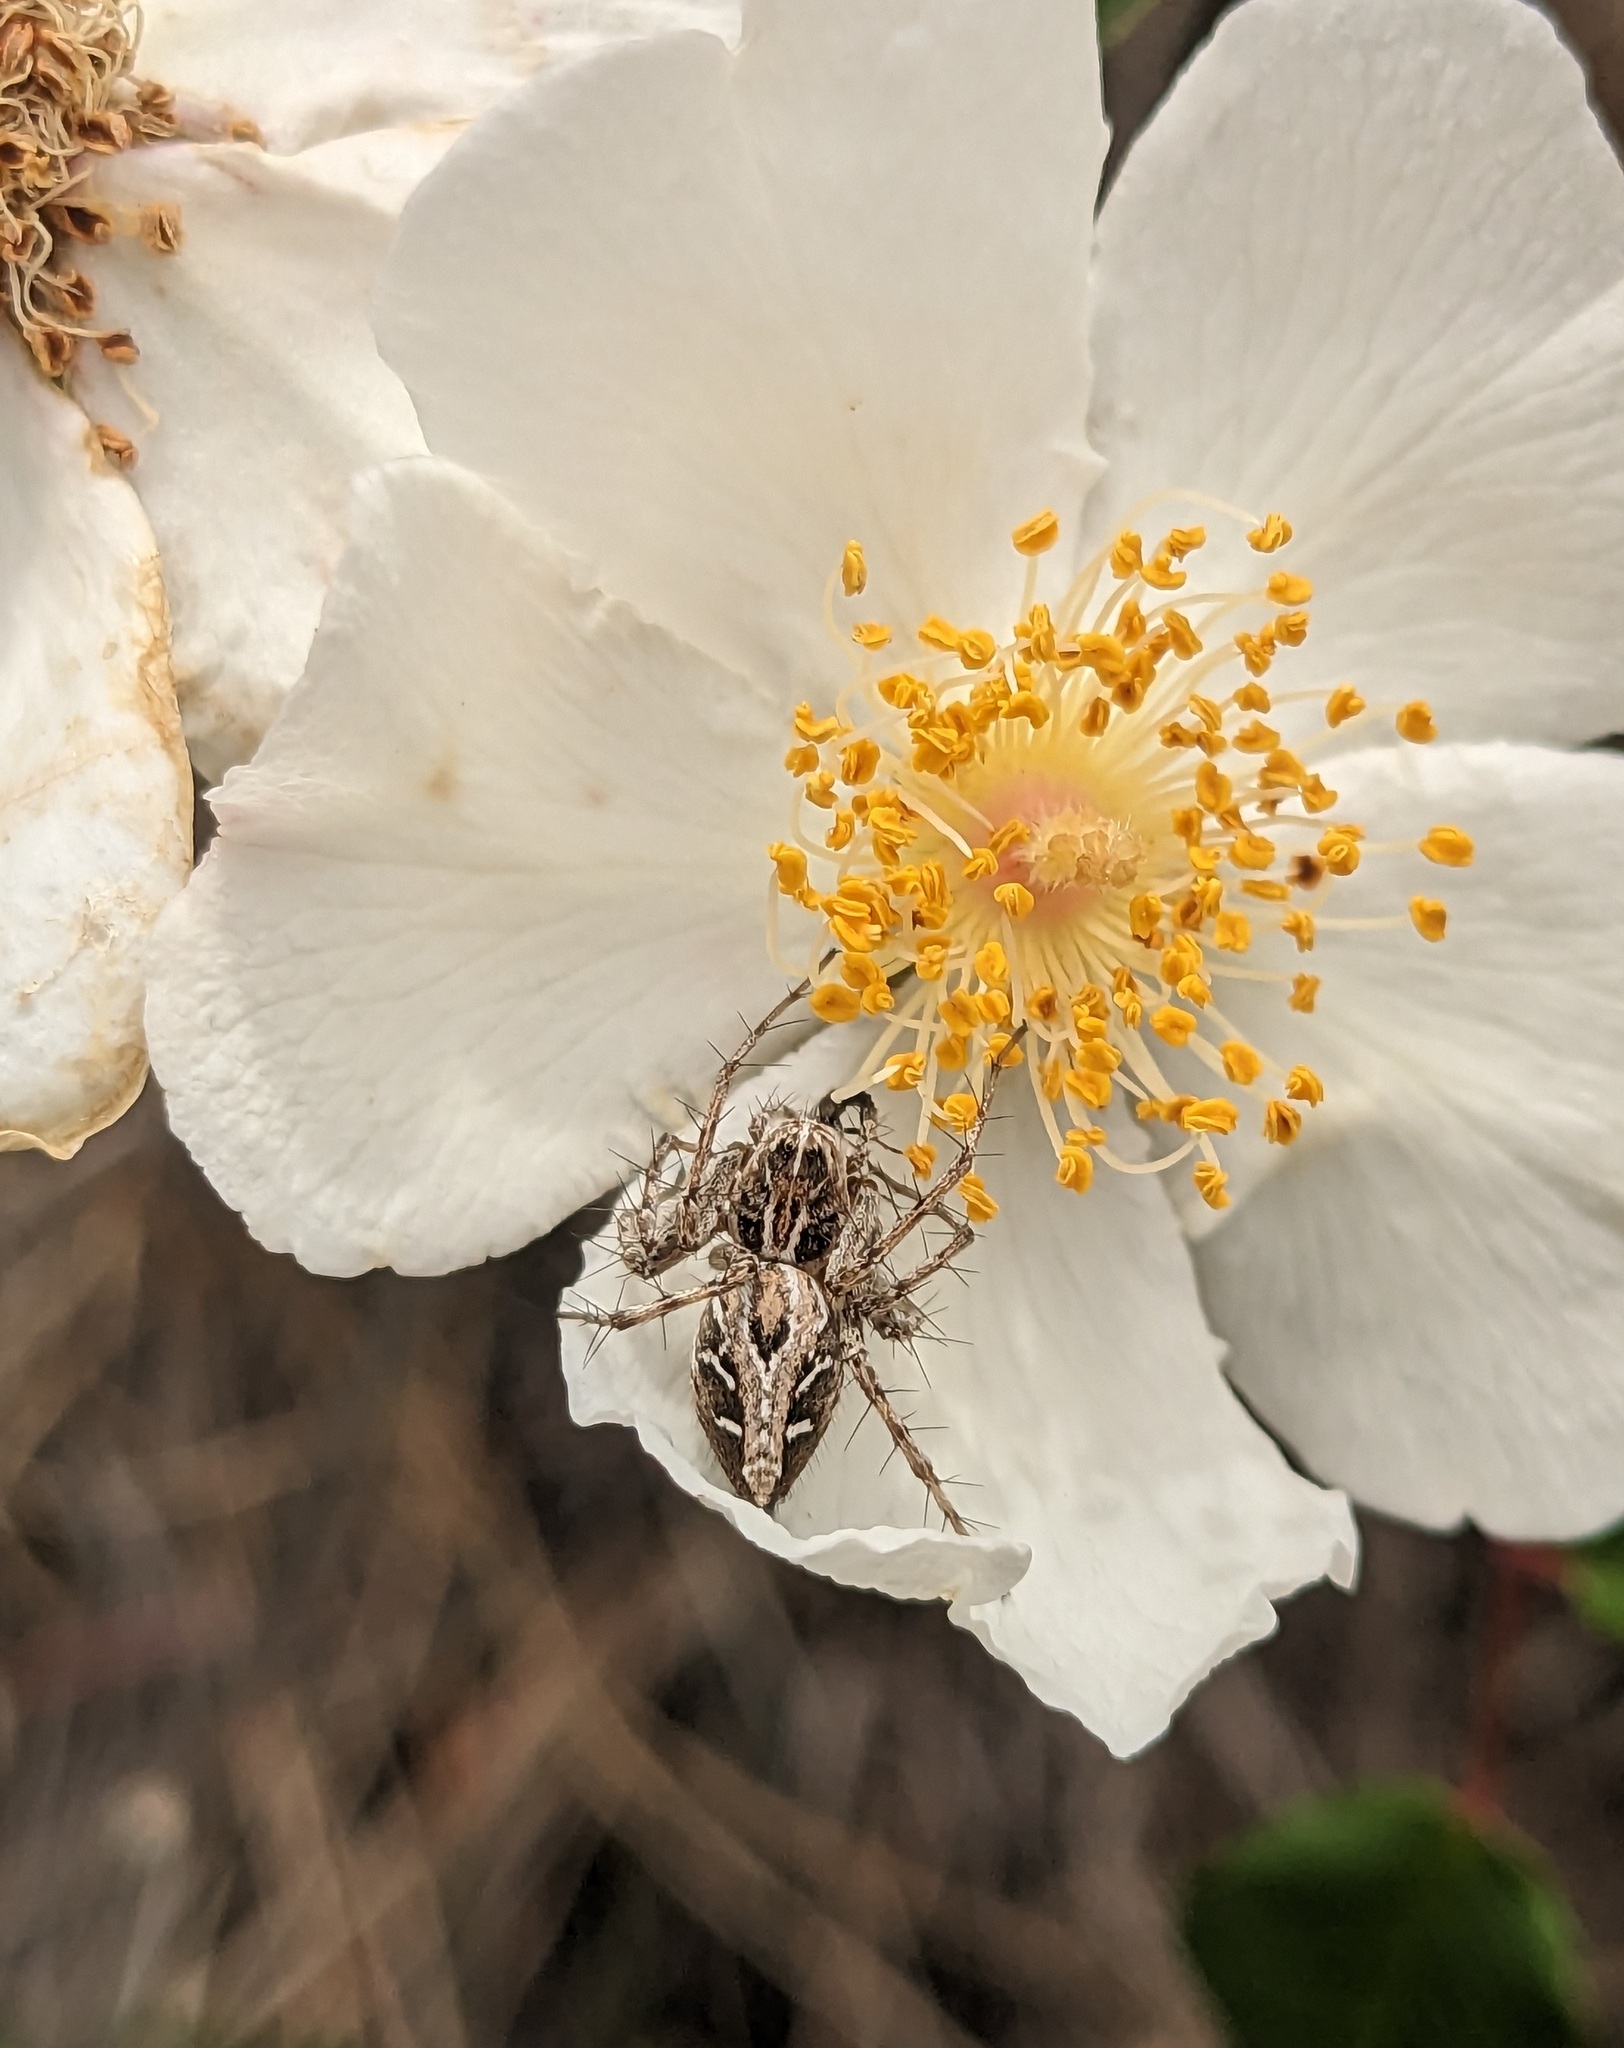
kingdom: Animalia
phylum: Arthropoda
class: Arachnida
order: Araneae
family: Oxyopidae
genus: Oxyopes
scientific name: Oxyopes heterophthalmus
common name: Lynx spider
